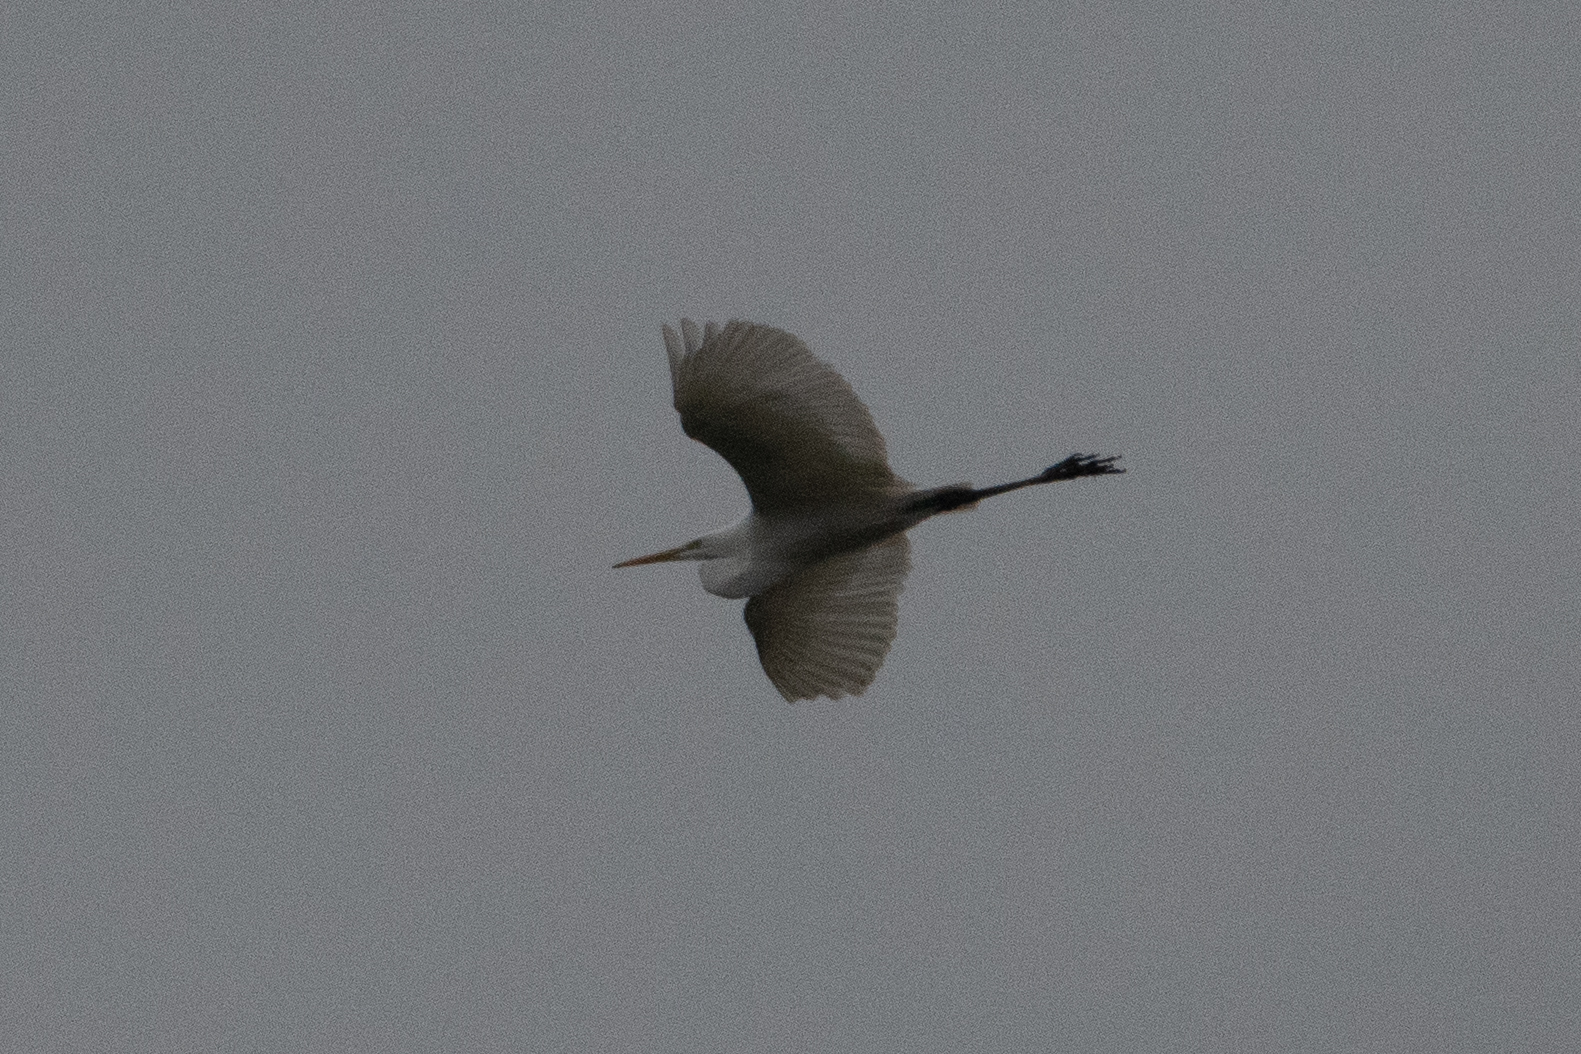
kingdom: Animalia
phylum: Chordata
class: Aves
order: Pelecaniformes
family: Ardeidae
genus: Ardea
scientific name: Ardea alba
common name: Great egret
